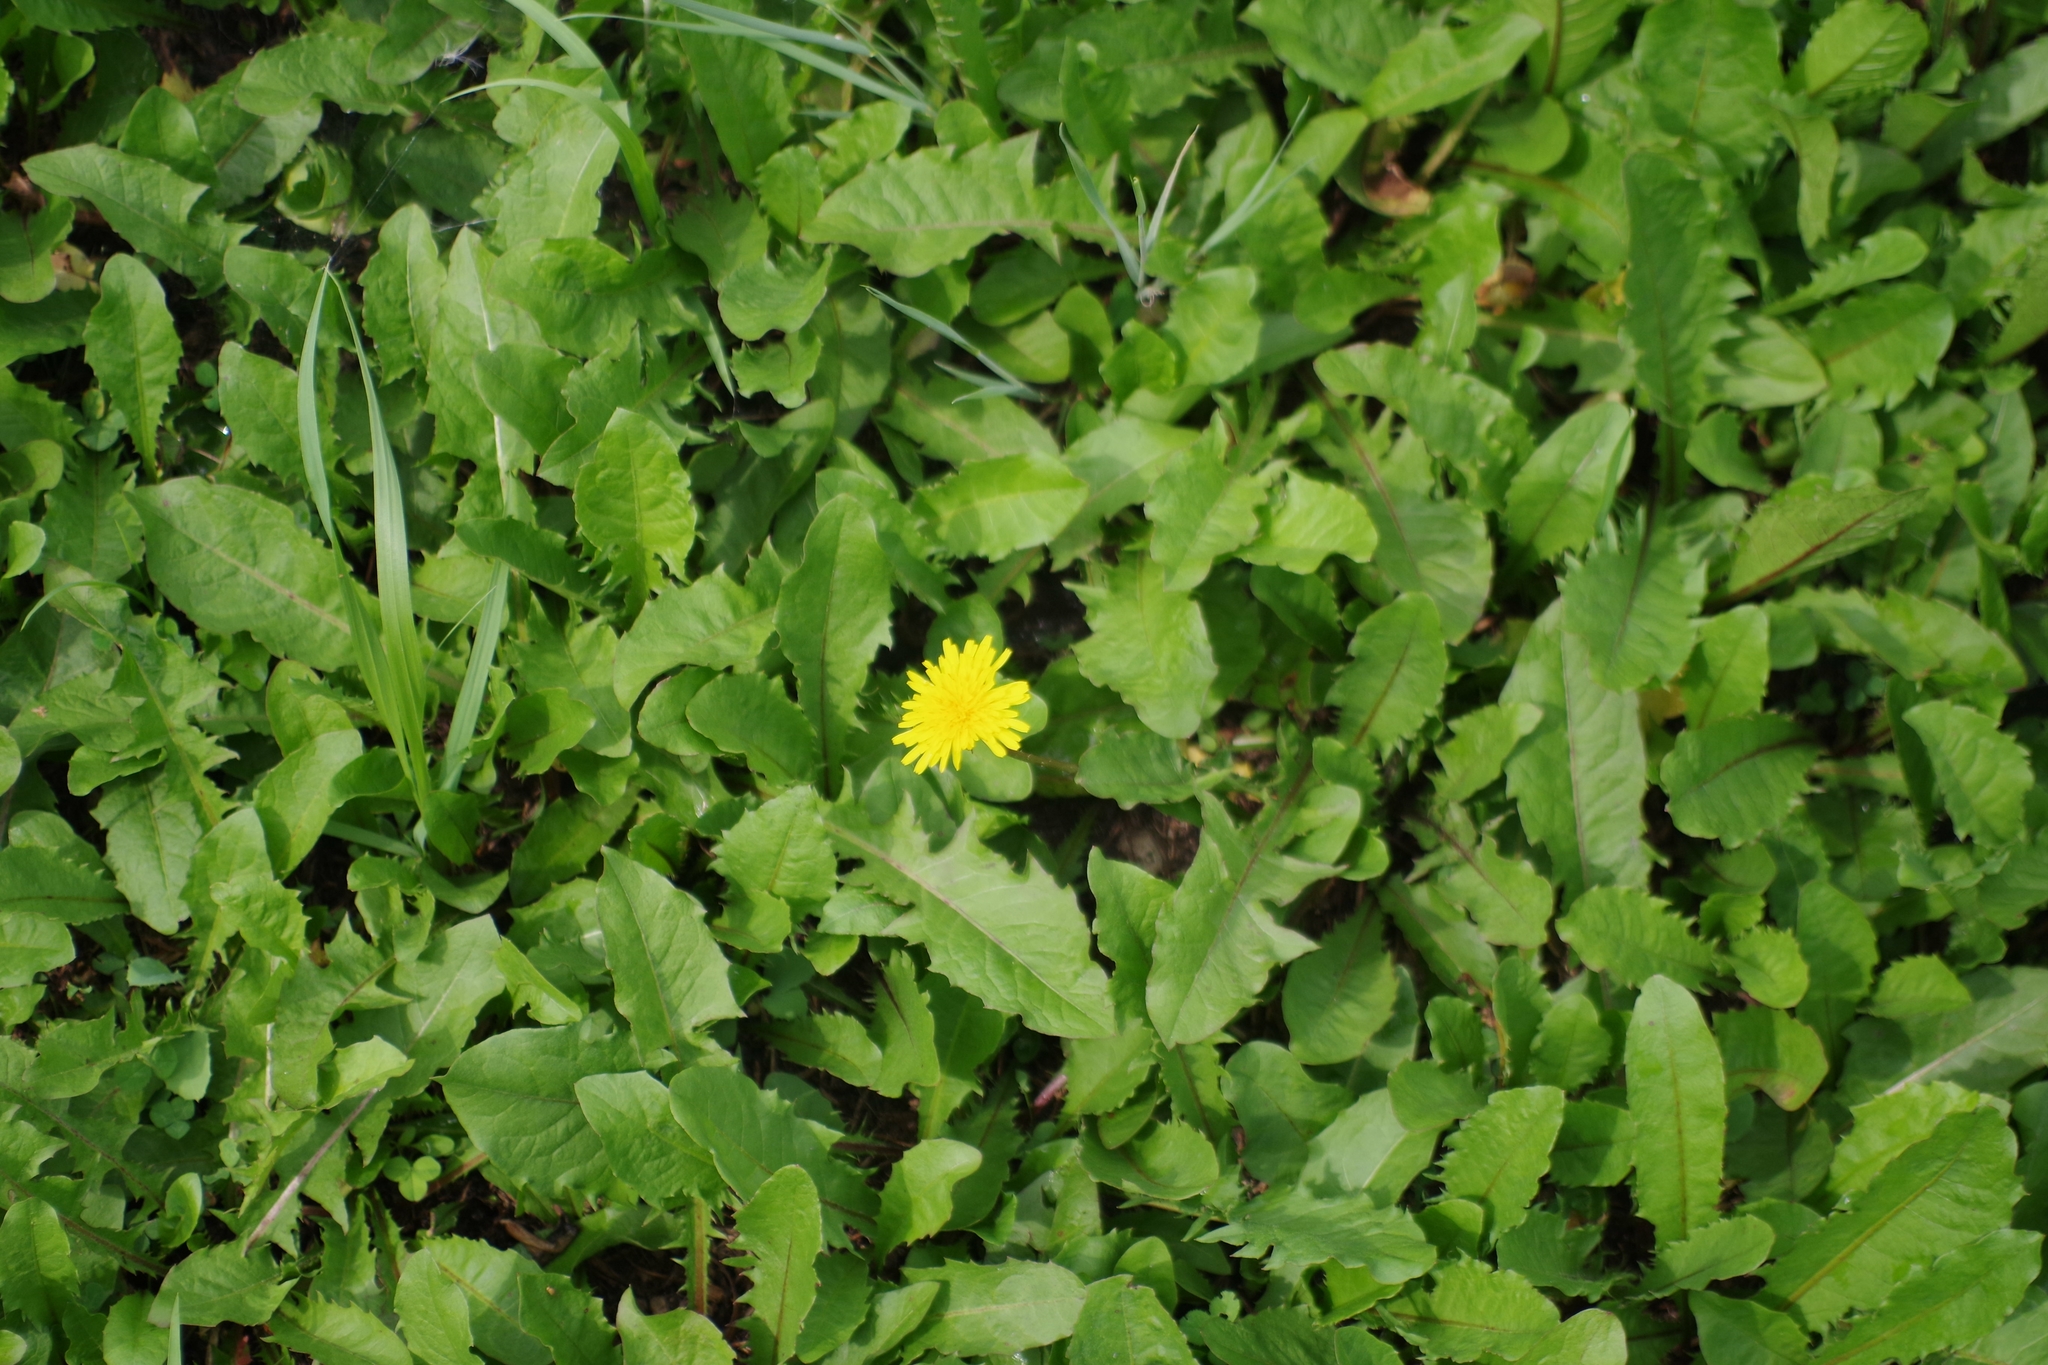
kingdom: Plantae
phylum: Tracheophyta
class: Magnoliopsida
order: Asterales
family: Asteraceae
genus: Taraxacum
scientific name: Taraxacum officinale
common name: Common dandelion
